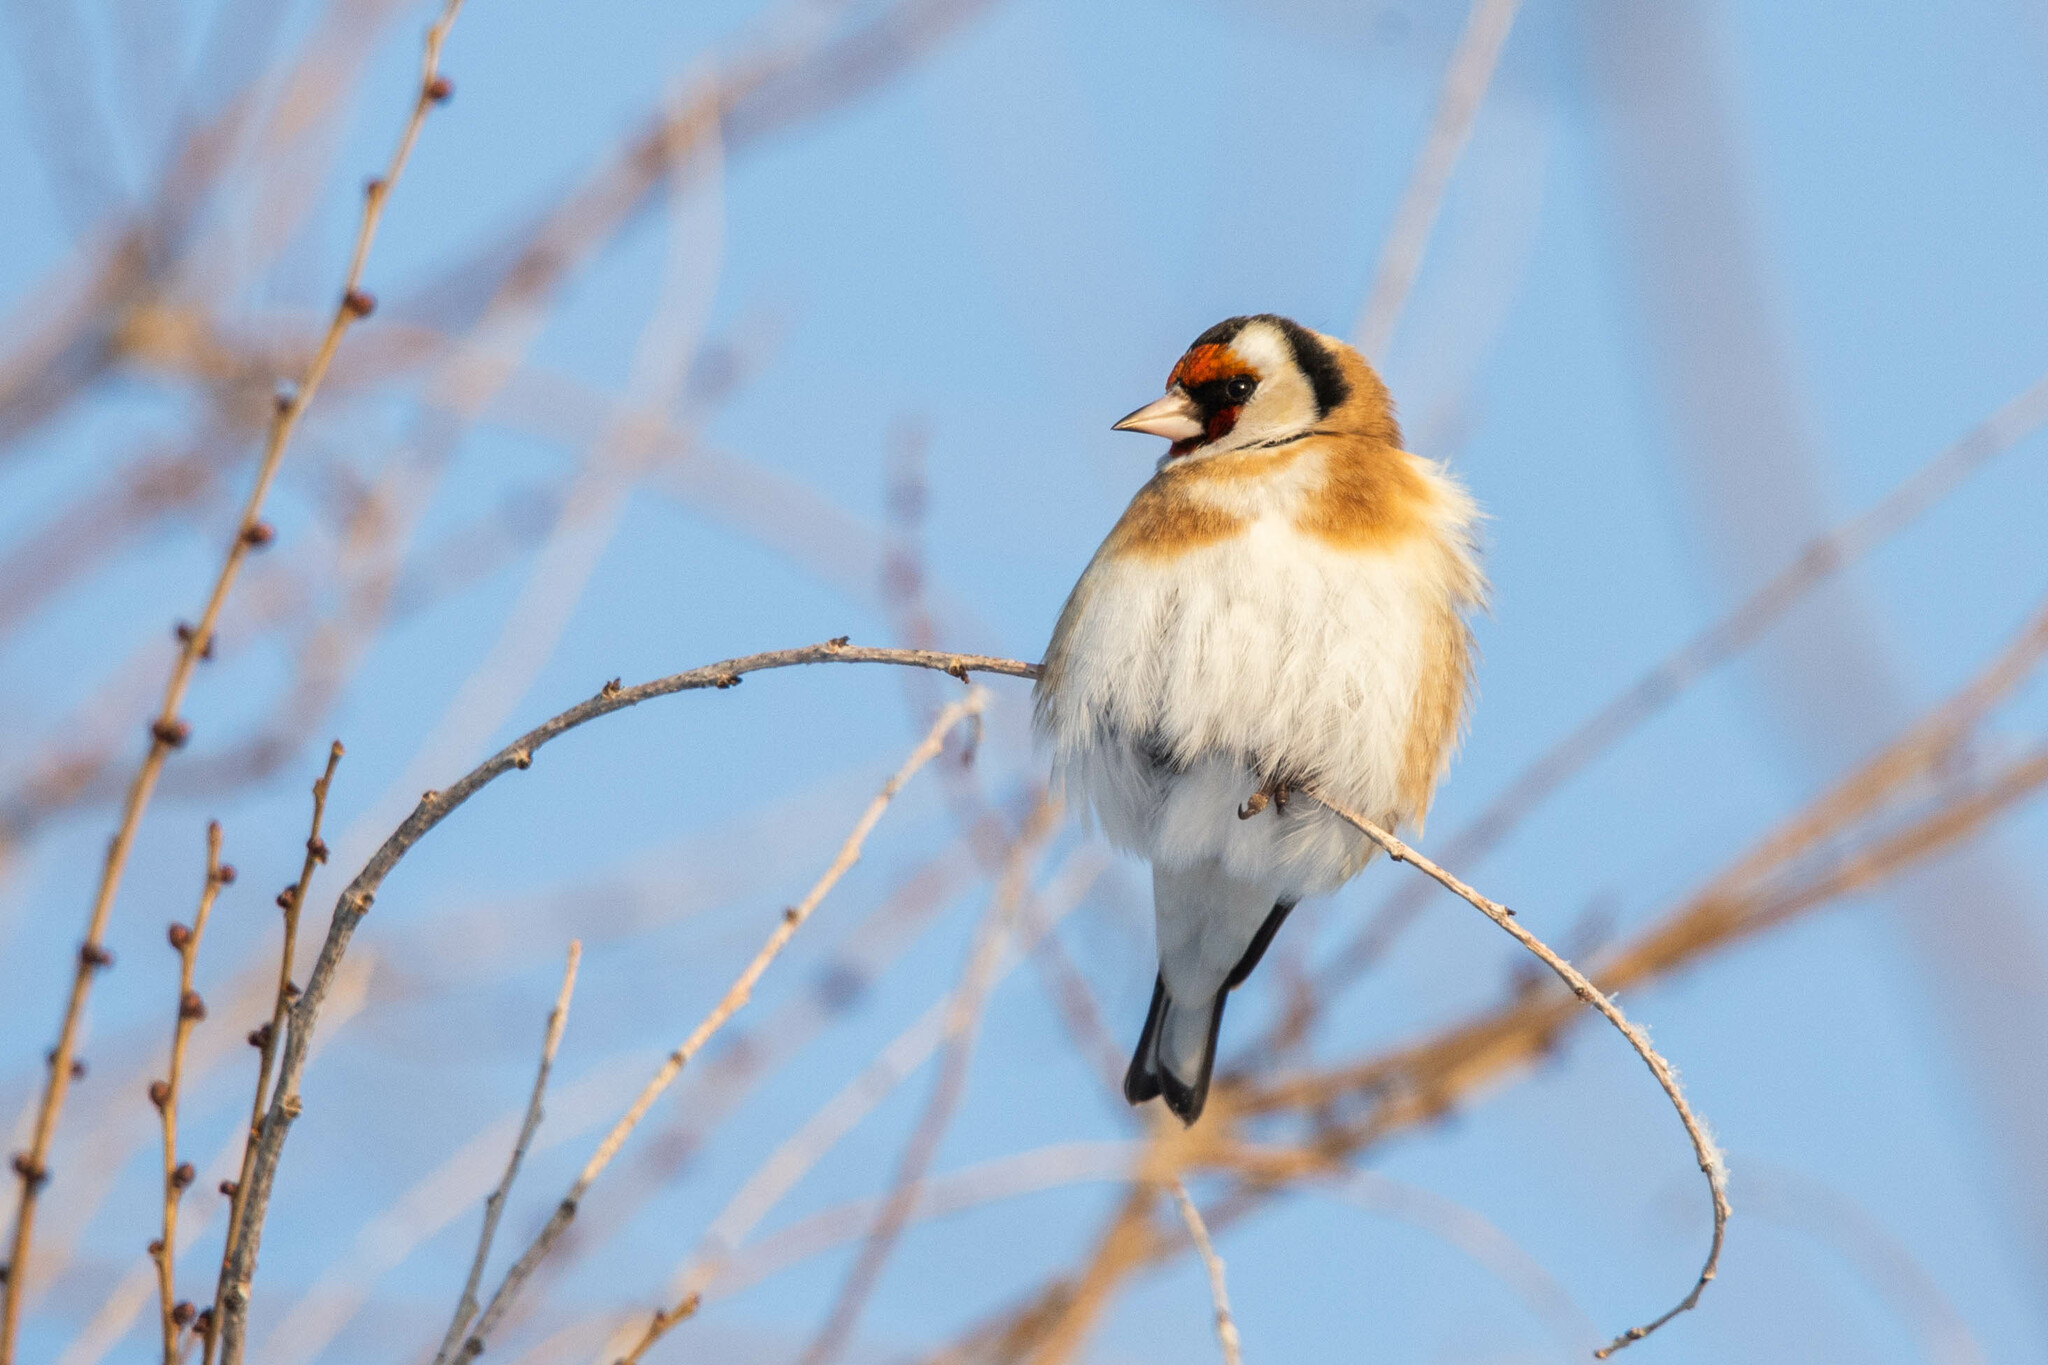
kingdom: Animalia
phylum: Chordata
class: Aves
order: Passeriformes
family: Fringillidae
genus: Carduelis
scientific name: Carduelis carduelis
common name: European goldfinch
